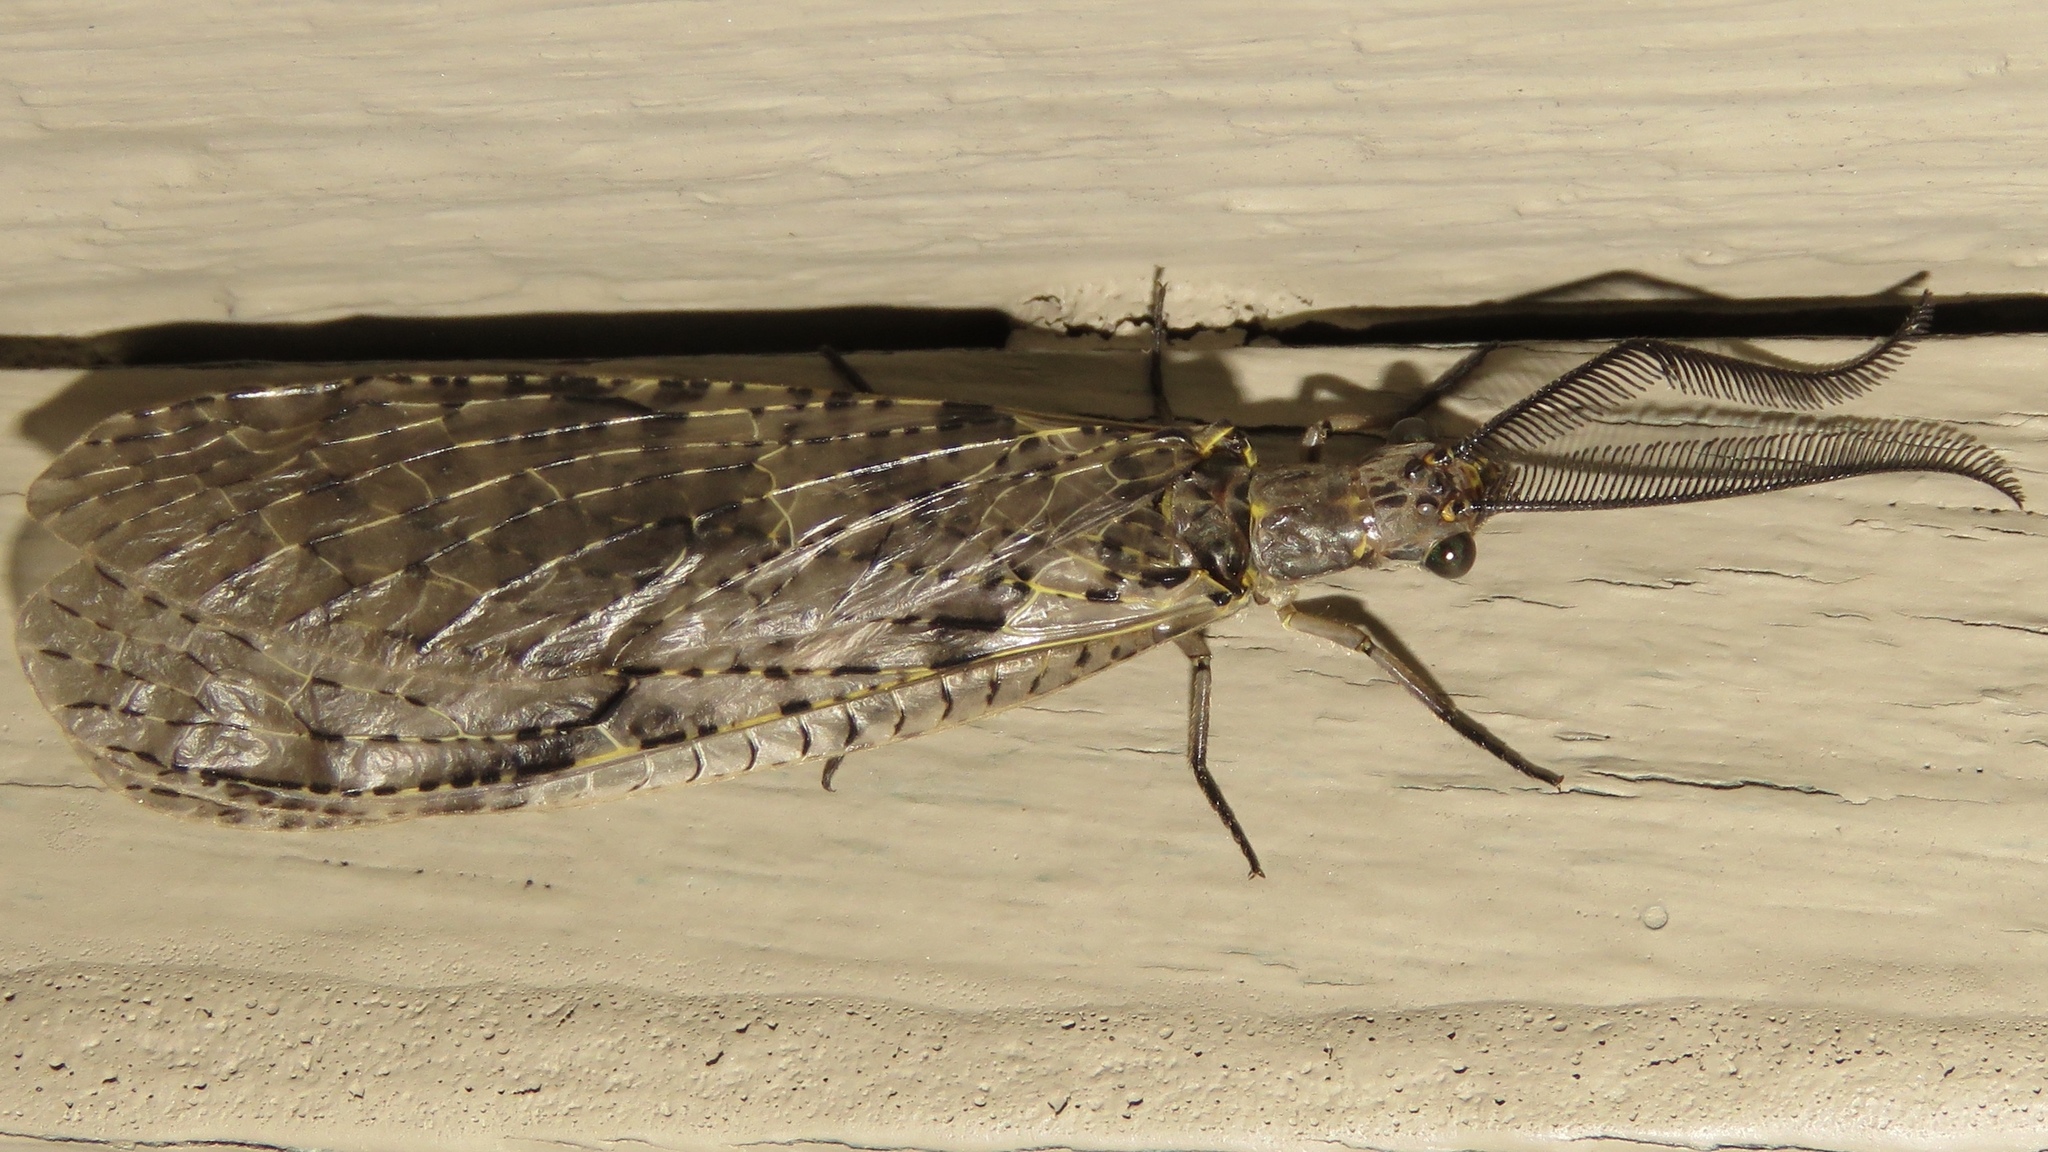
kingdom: Animalia
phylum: Arthropoda
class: Insecta
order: Megaloptera
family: Corydalidae
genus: Chauliodes
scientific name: Chauliodes rastricornis
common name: Spring fishfly
